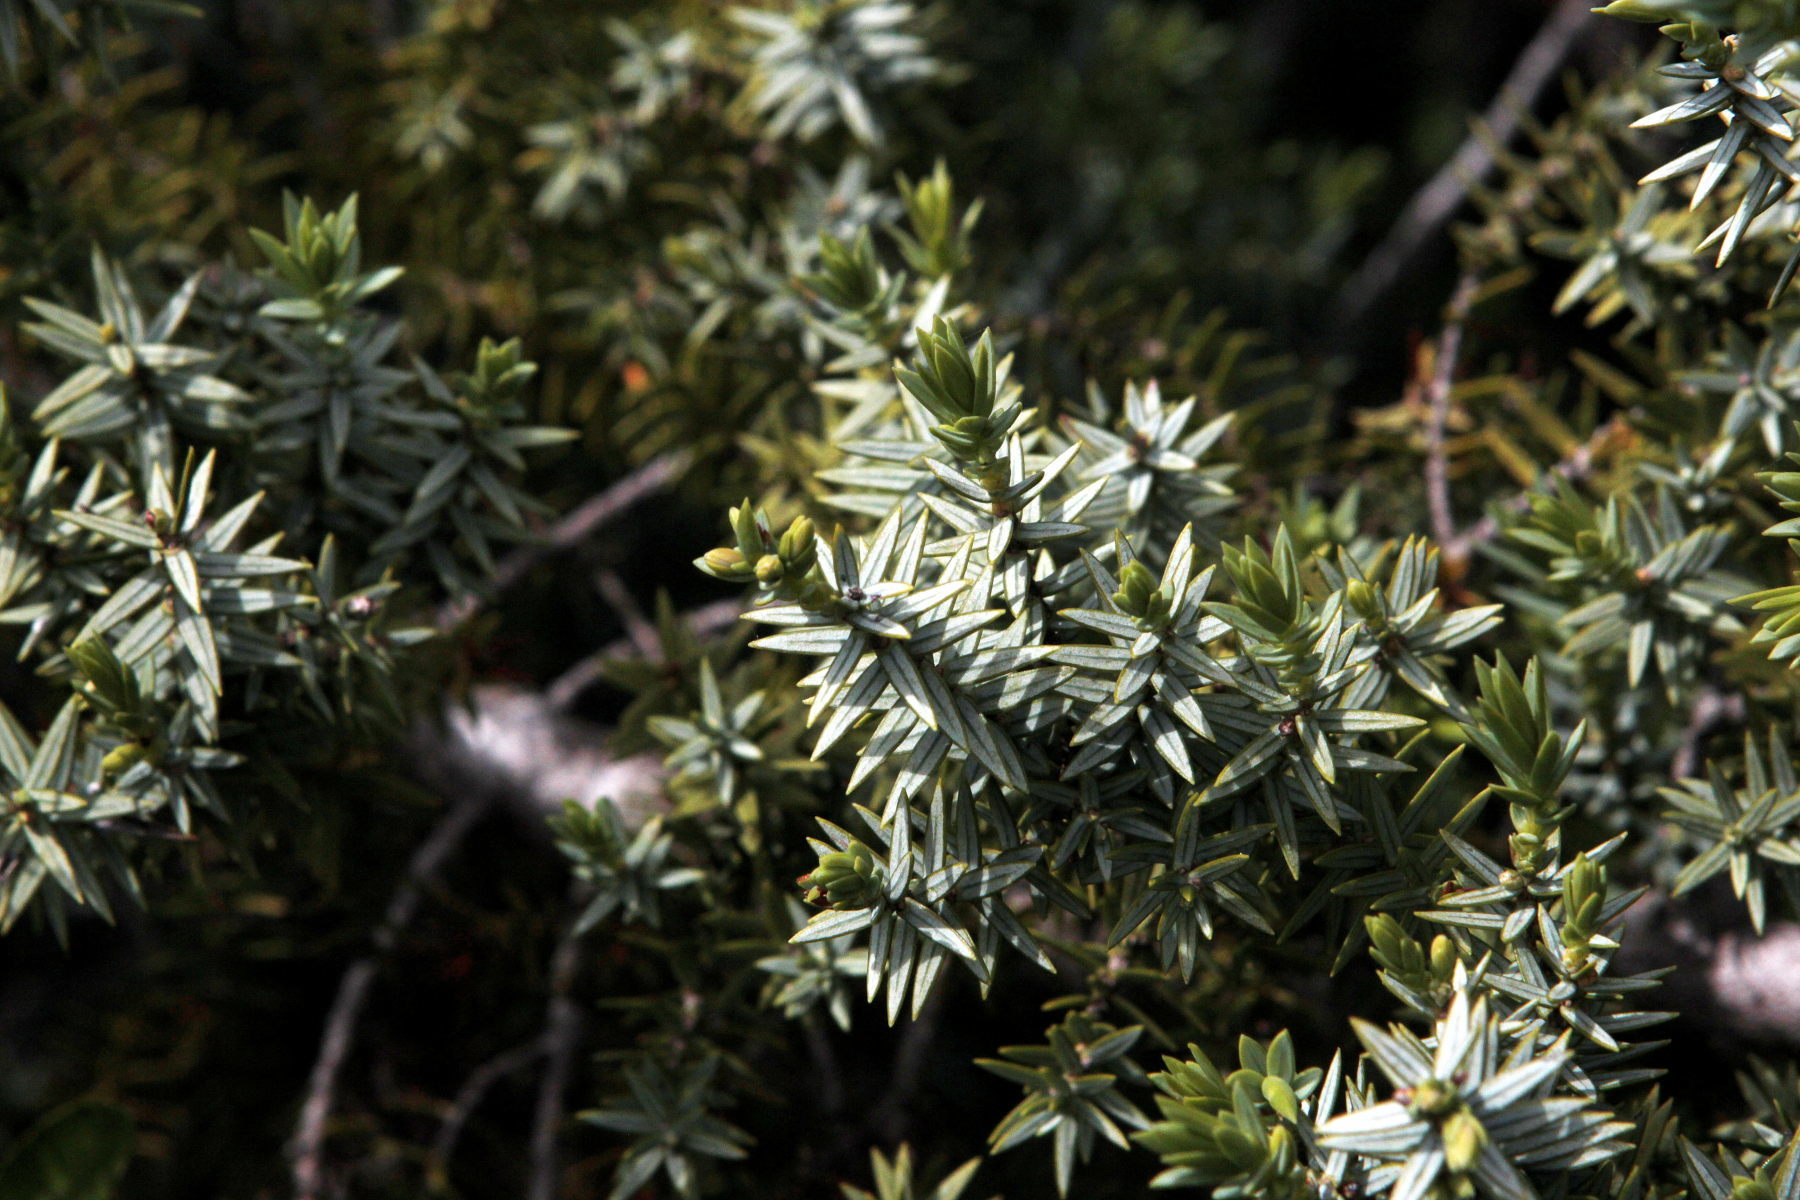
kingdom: Plantae
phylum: Tracheophyta
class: Pinopsida
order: Pinales
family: Cupressaceae
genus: Juniperus
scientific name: Juniperus oxycedrus
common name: Prickly juniper
